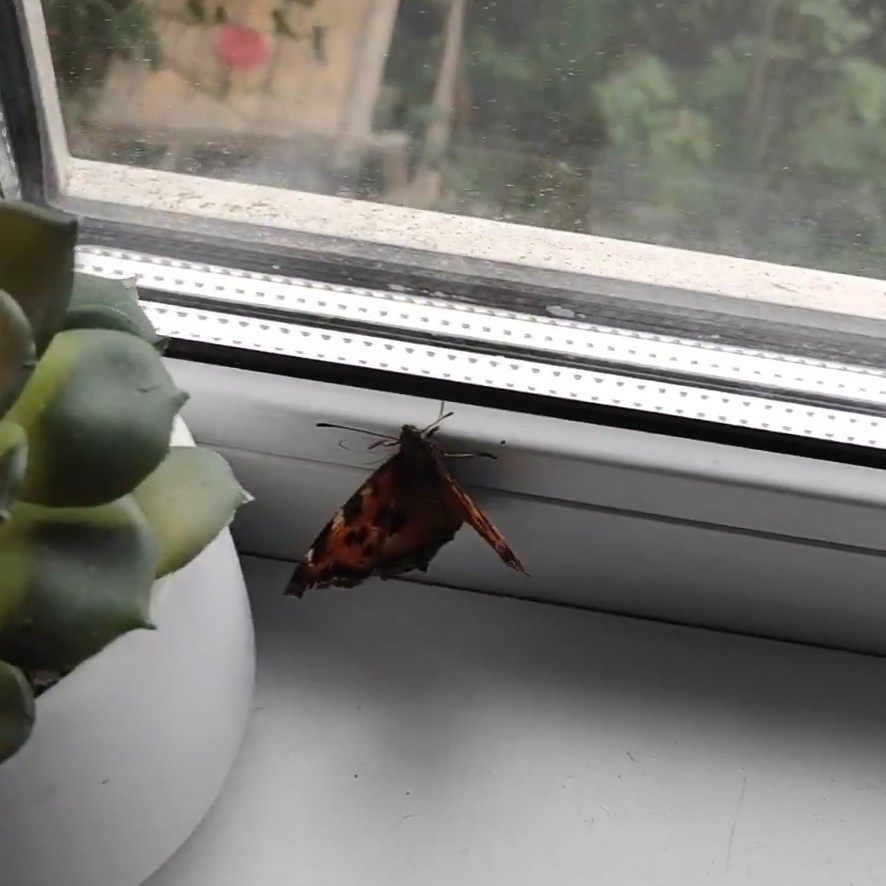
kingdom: Animalia
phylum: Arthropoda
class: Insecta
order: Lepidoptera
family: Nymphalidae
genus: Nymphalis
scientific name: Nymphalis xanthomelas
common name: Scarce tortoiseshell
